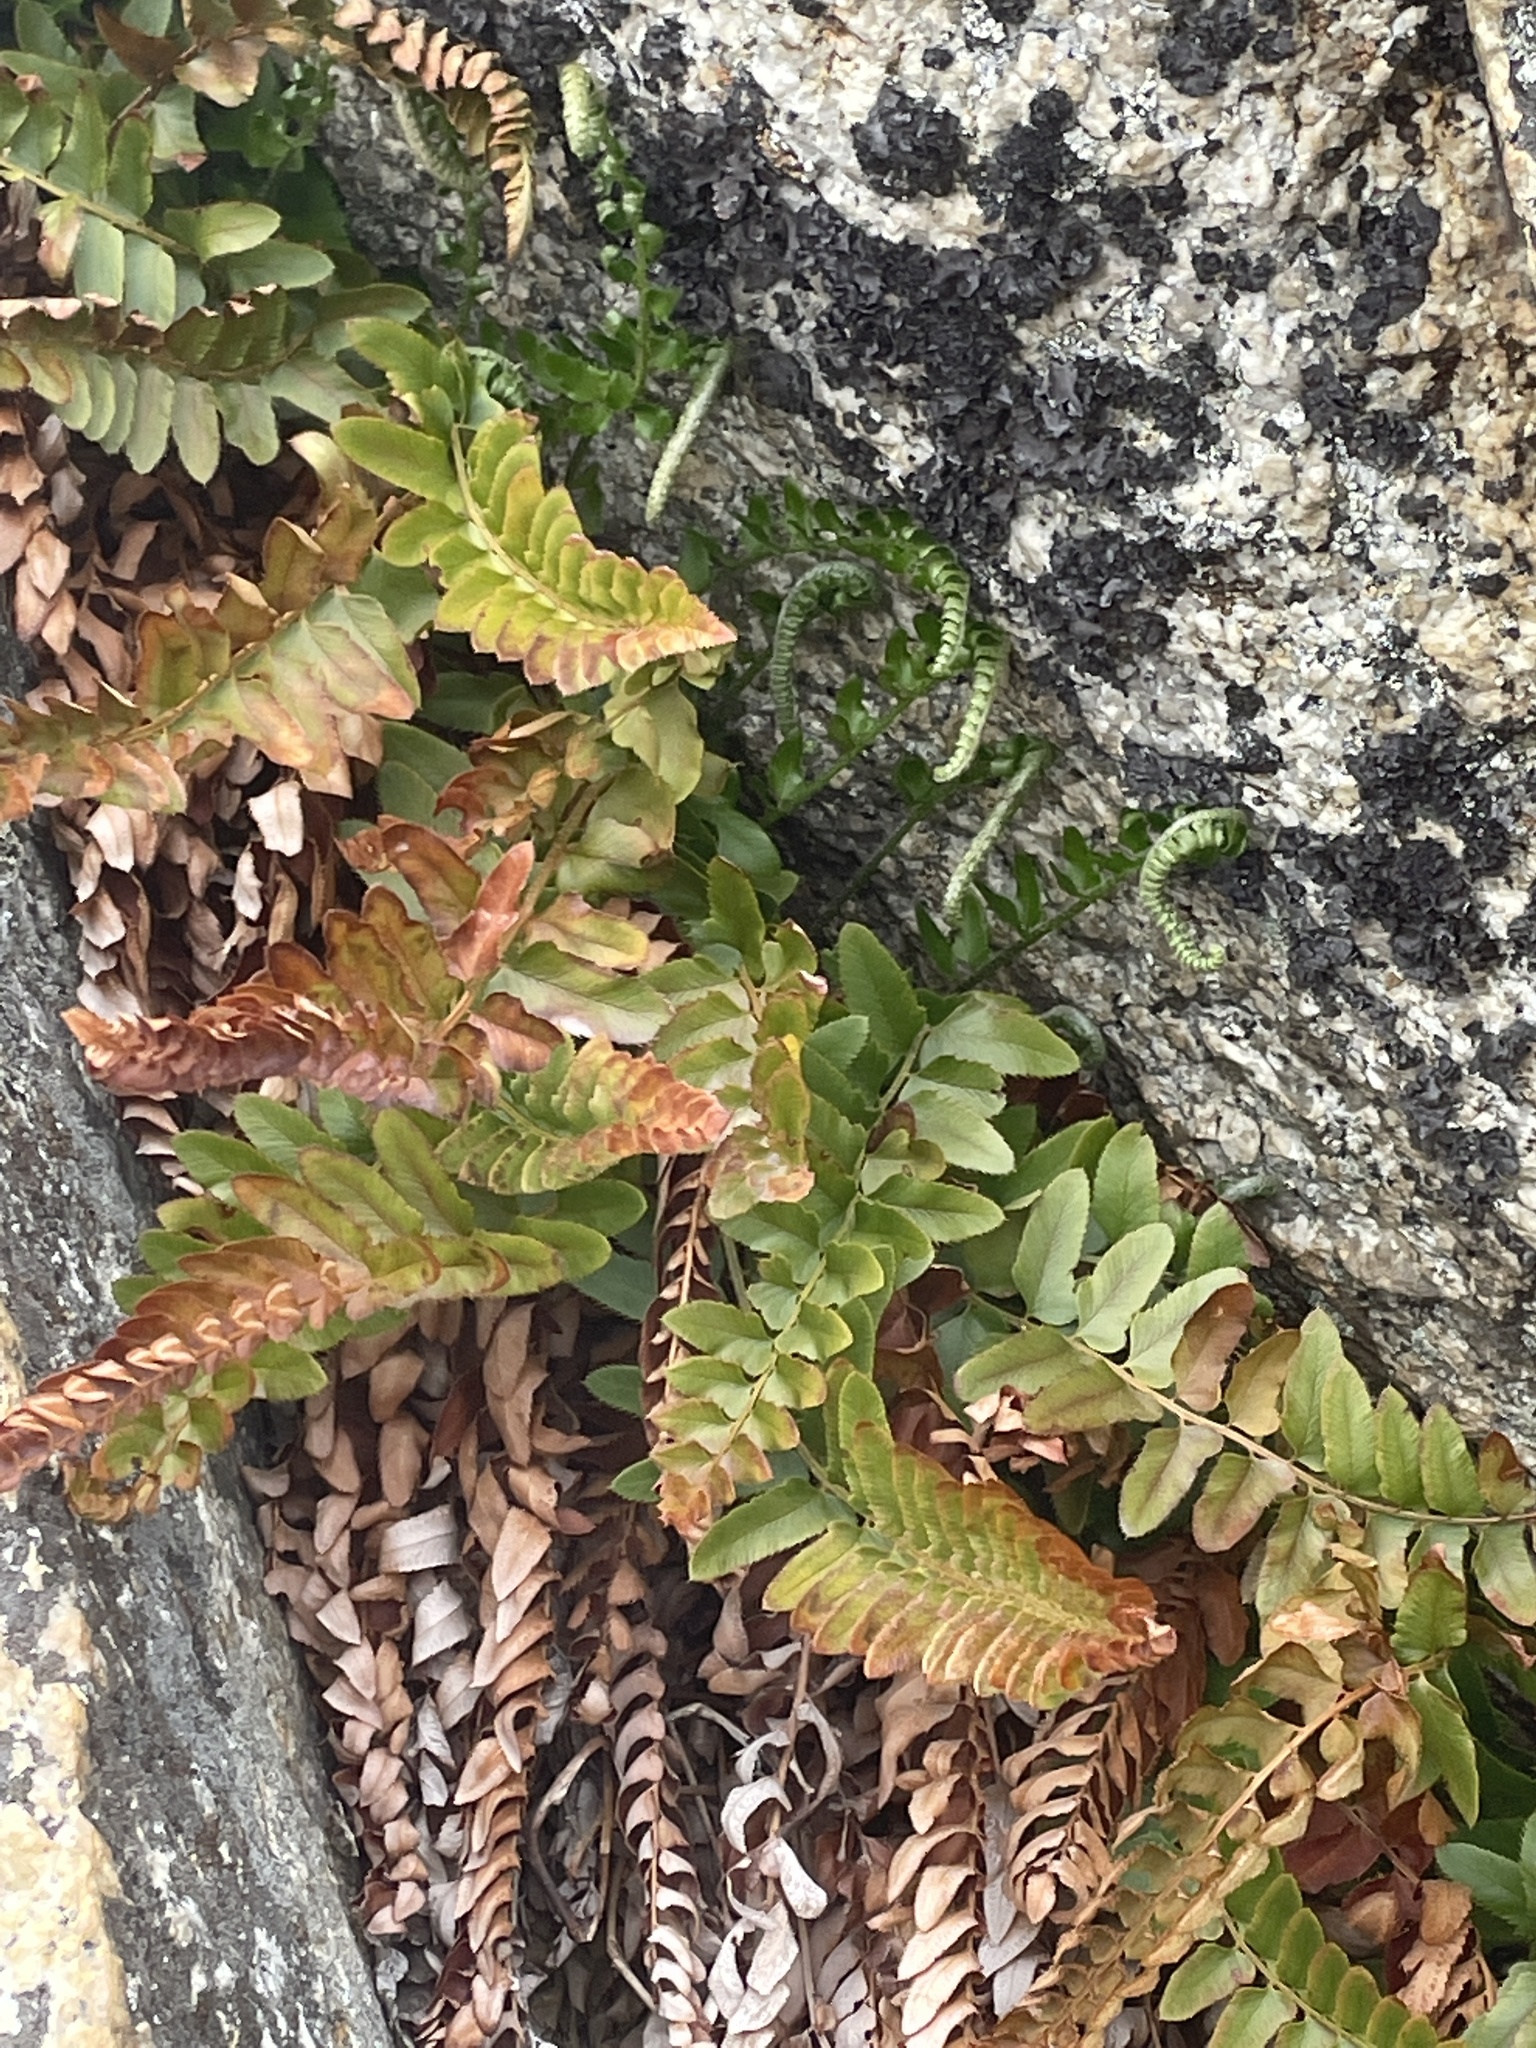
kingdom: Plantae
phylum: Tracheophyta
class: Polypodiopsida
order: Polypodiales
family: Dryopteridaceae
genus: Polystichum
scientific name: Polystichum imbricans
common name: Dwarf western sword fern
